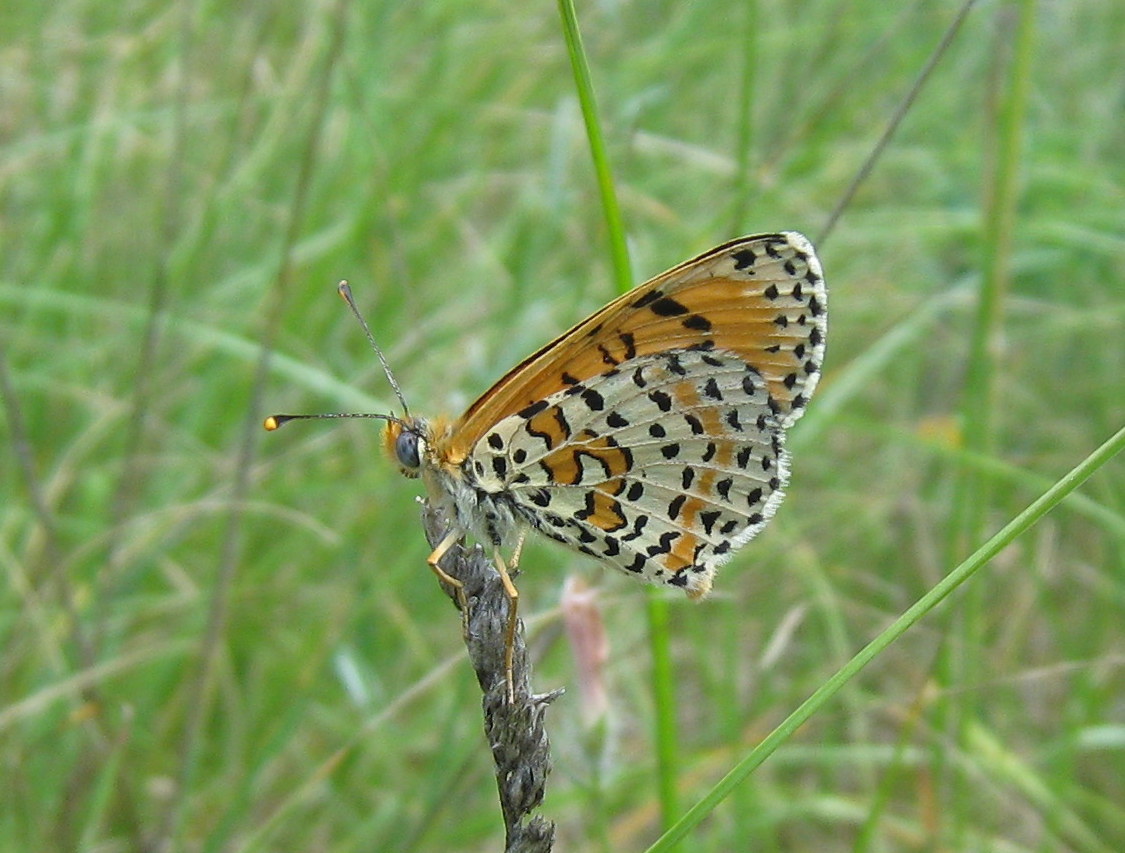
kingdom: Animalia
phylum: Arthropoda
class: Insecta
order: Lepidoptera
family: Nymphalidae
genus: Melitaea
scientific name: Melitaea didyma
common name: Spotted fritillary
